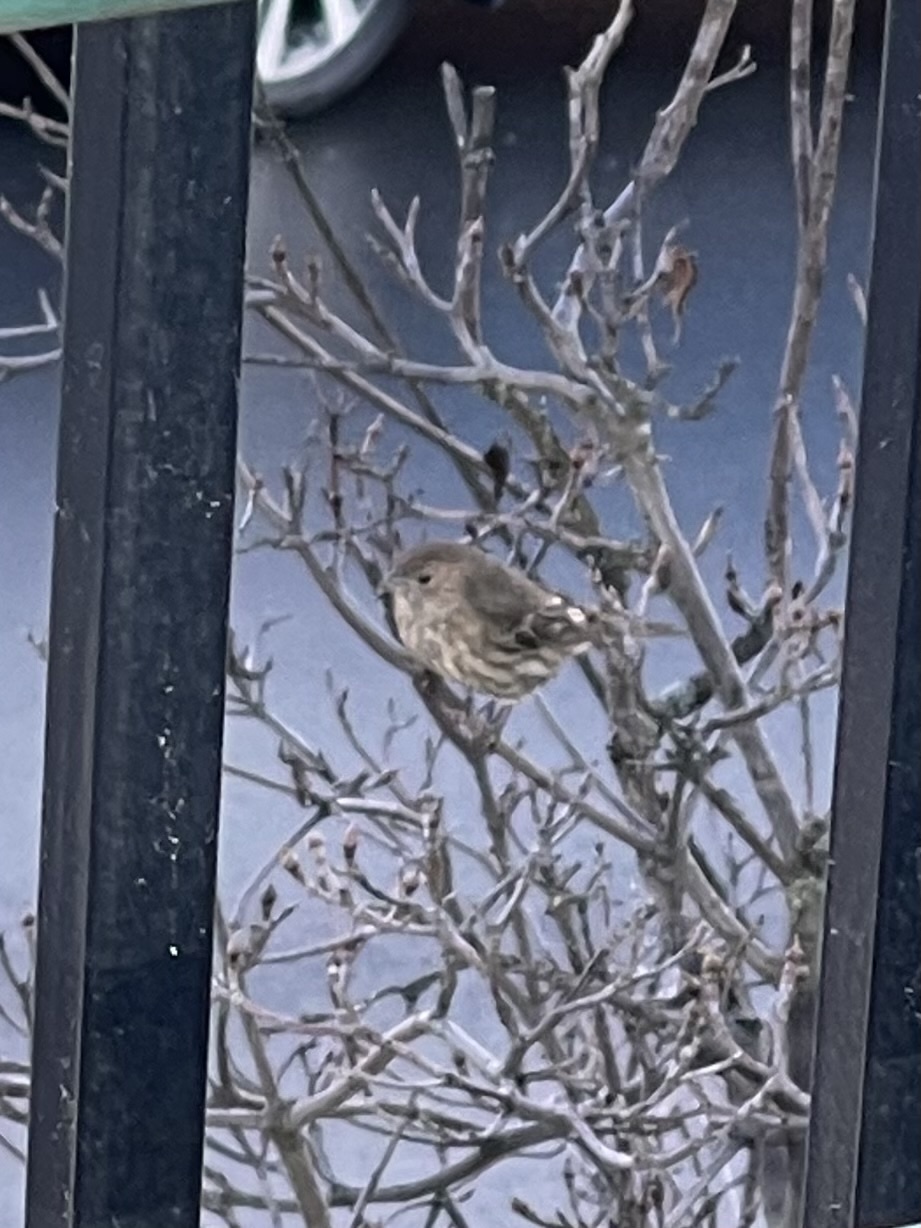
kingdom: Animalia
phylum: Chordata
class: Aves
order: Passeriformes
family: Fringillidae
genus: Haemorhous
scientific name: Haemorhous mexicanus
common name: House finch
